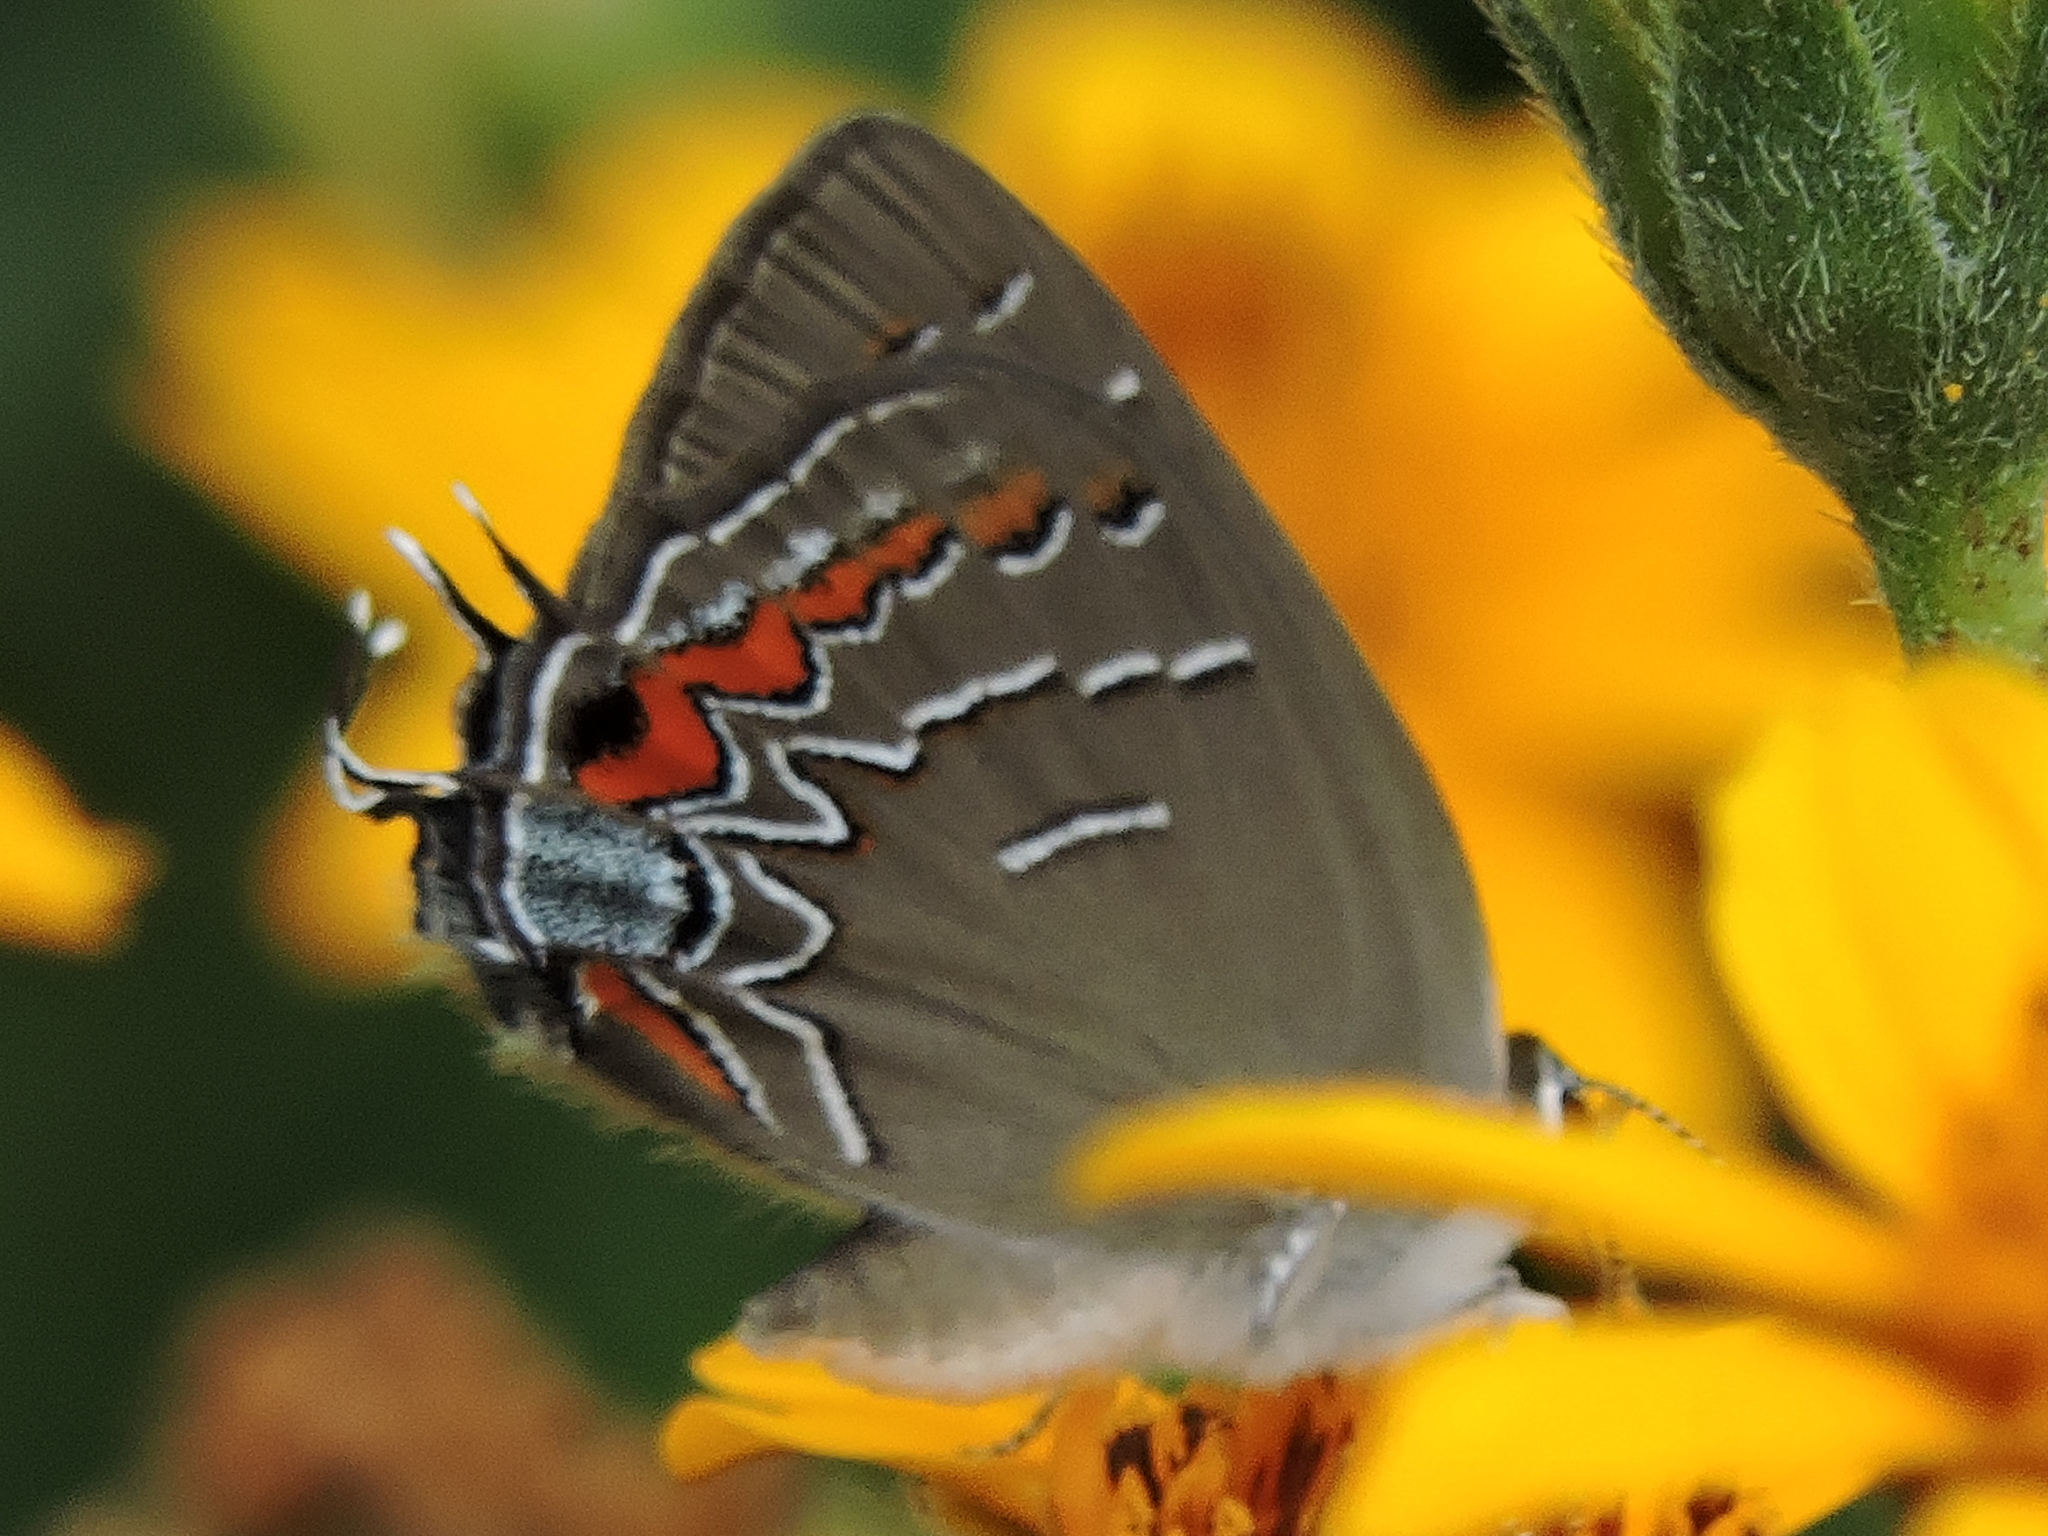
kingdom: Animalia
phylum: Arthropoda
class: Insecta
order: Lepidoptera
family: Lycaenidae
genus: Phaeostrymon
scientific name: Phaeostrymon alcestis
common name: Soapberry hairstreak
